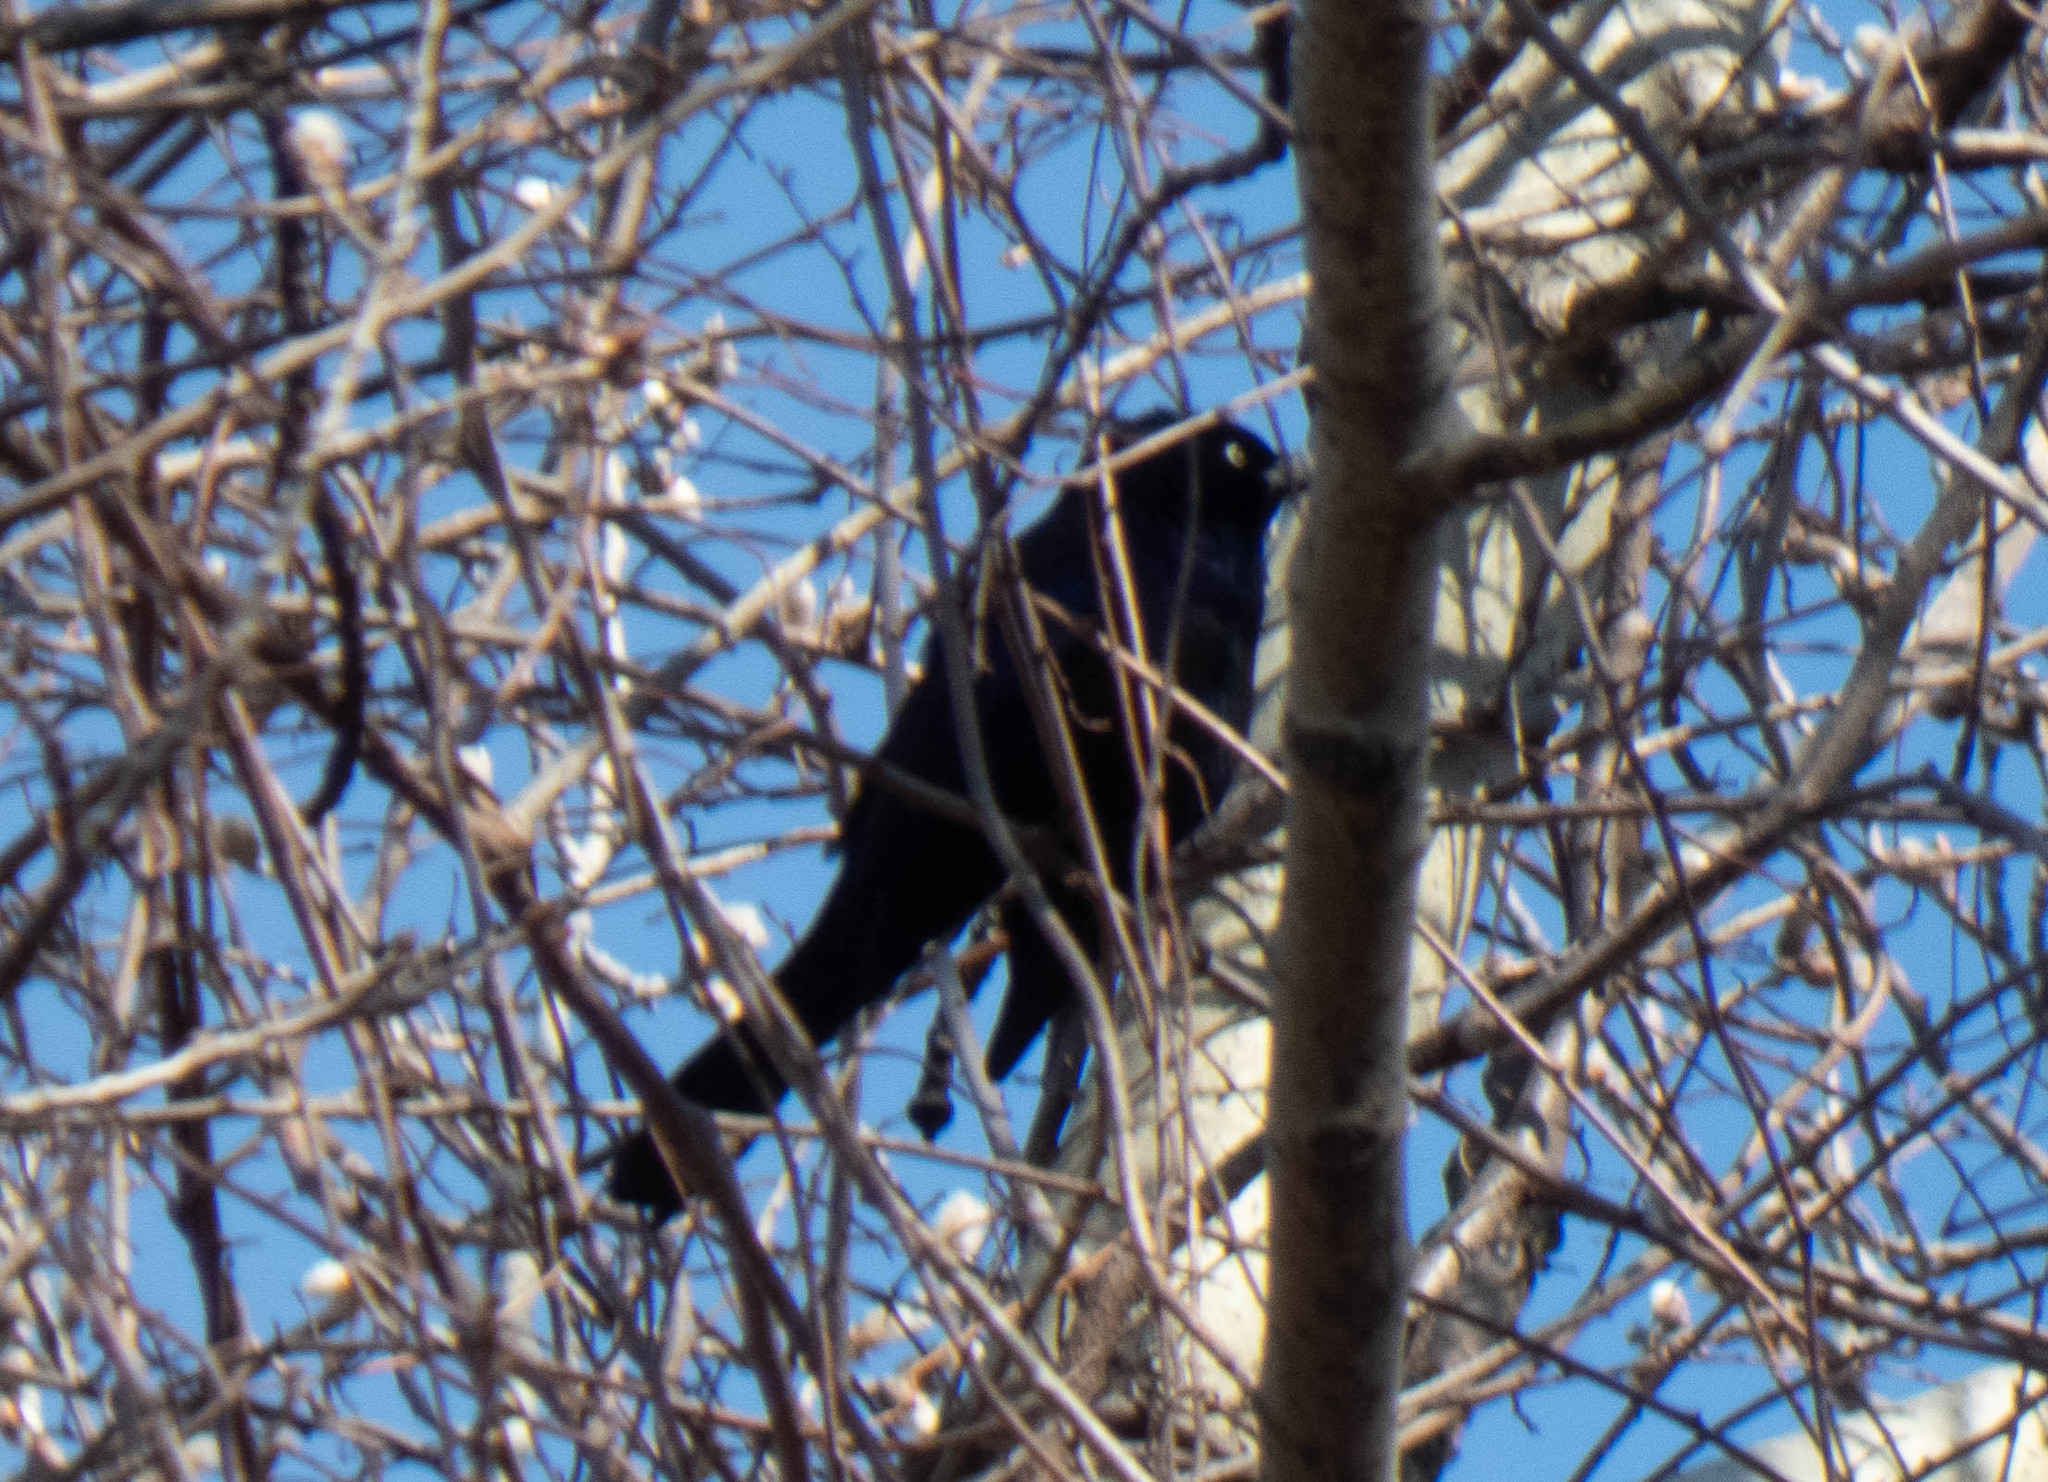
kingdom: Animalia
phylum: Chordata
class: Aves
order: Passeriformes
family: Icteridae
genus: Quiscalus
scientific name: Quiscalus quiscula
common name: Common grackle
